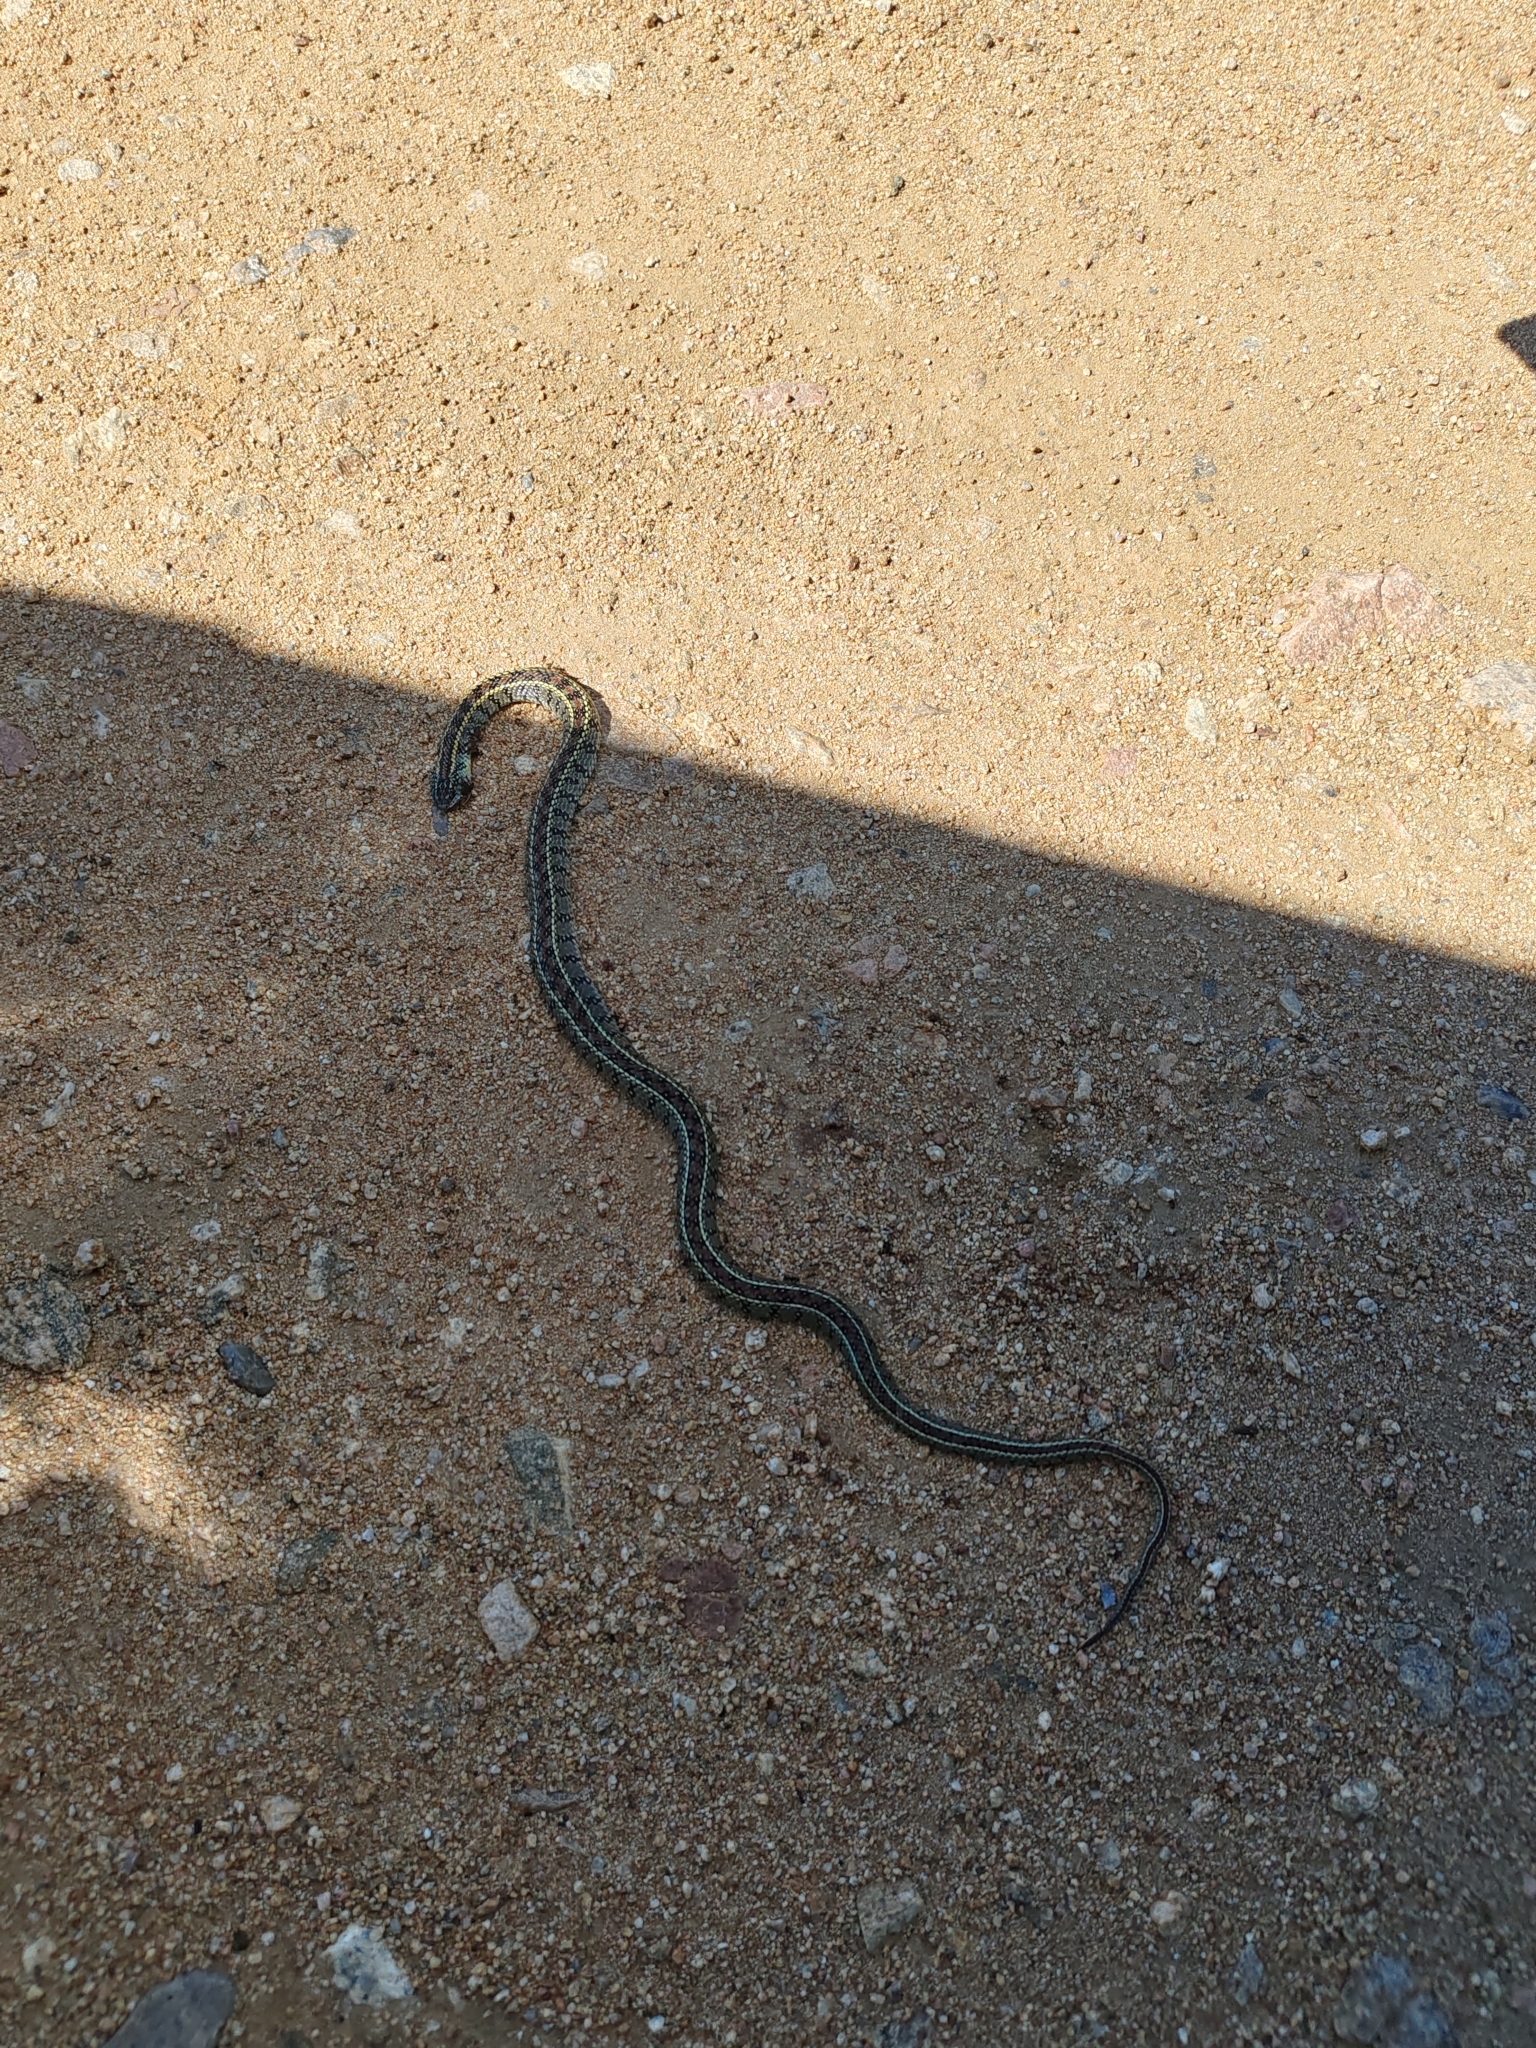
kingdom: Animalia
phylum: Chordata
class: Squamata
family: Colubridae
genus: Lygophis
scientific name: Lygophis anomalus
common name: English common name not available
